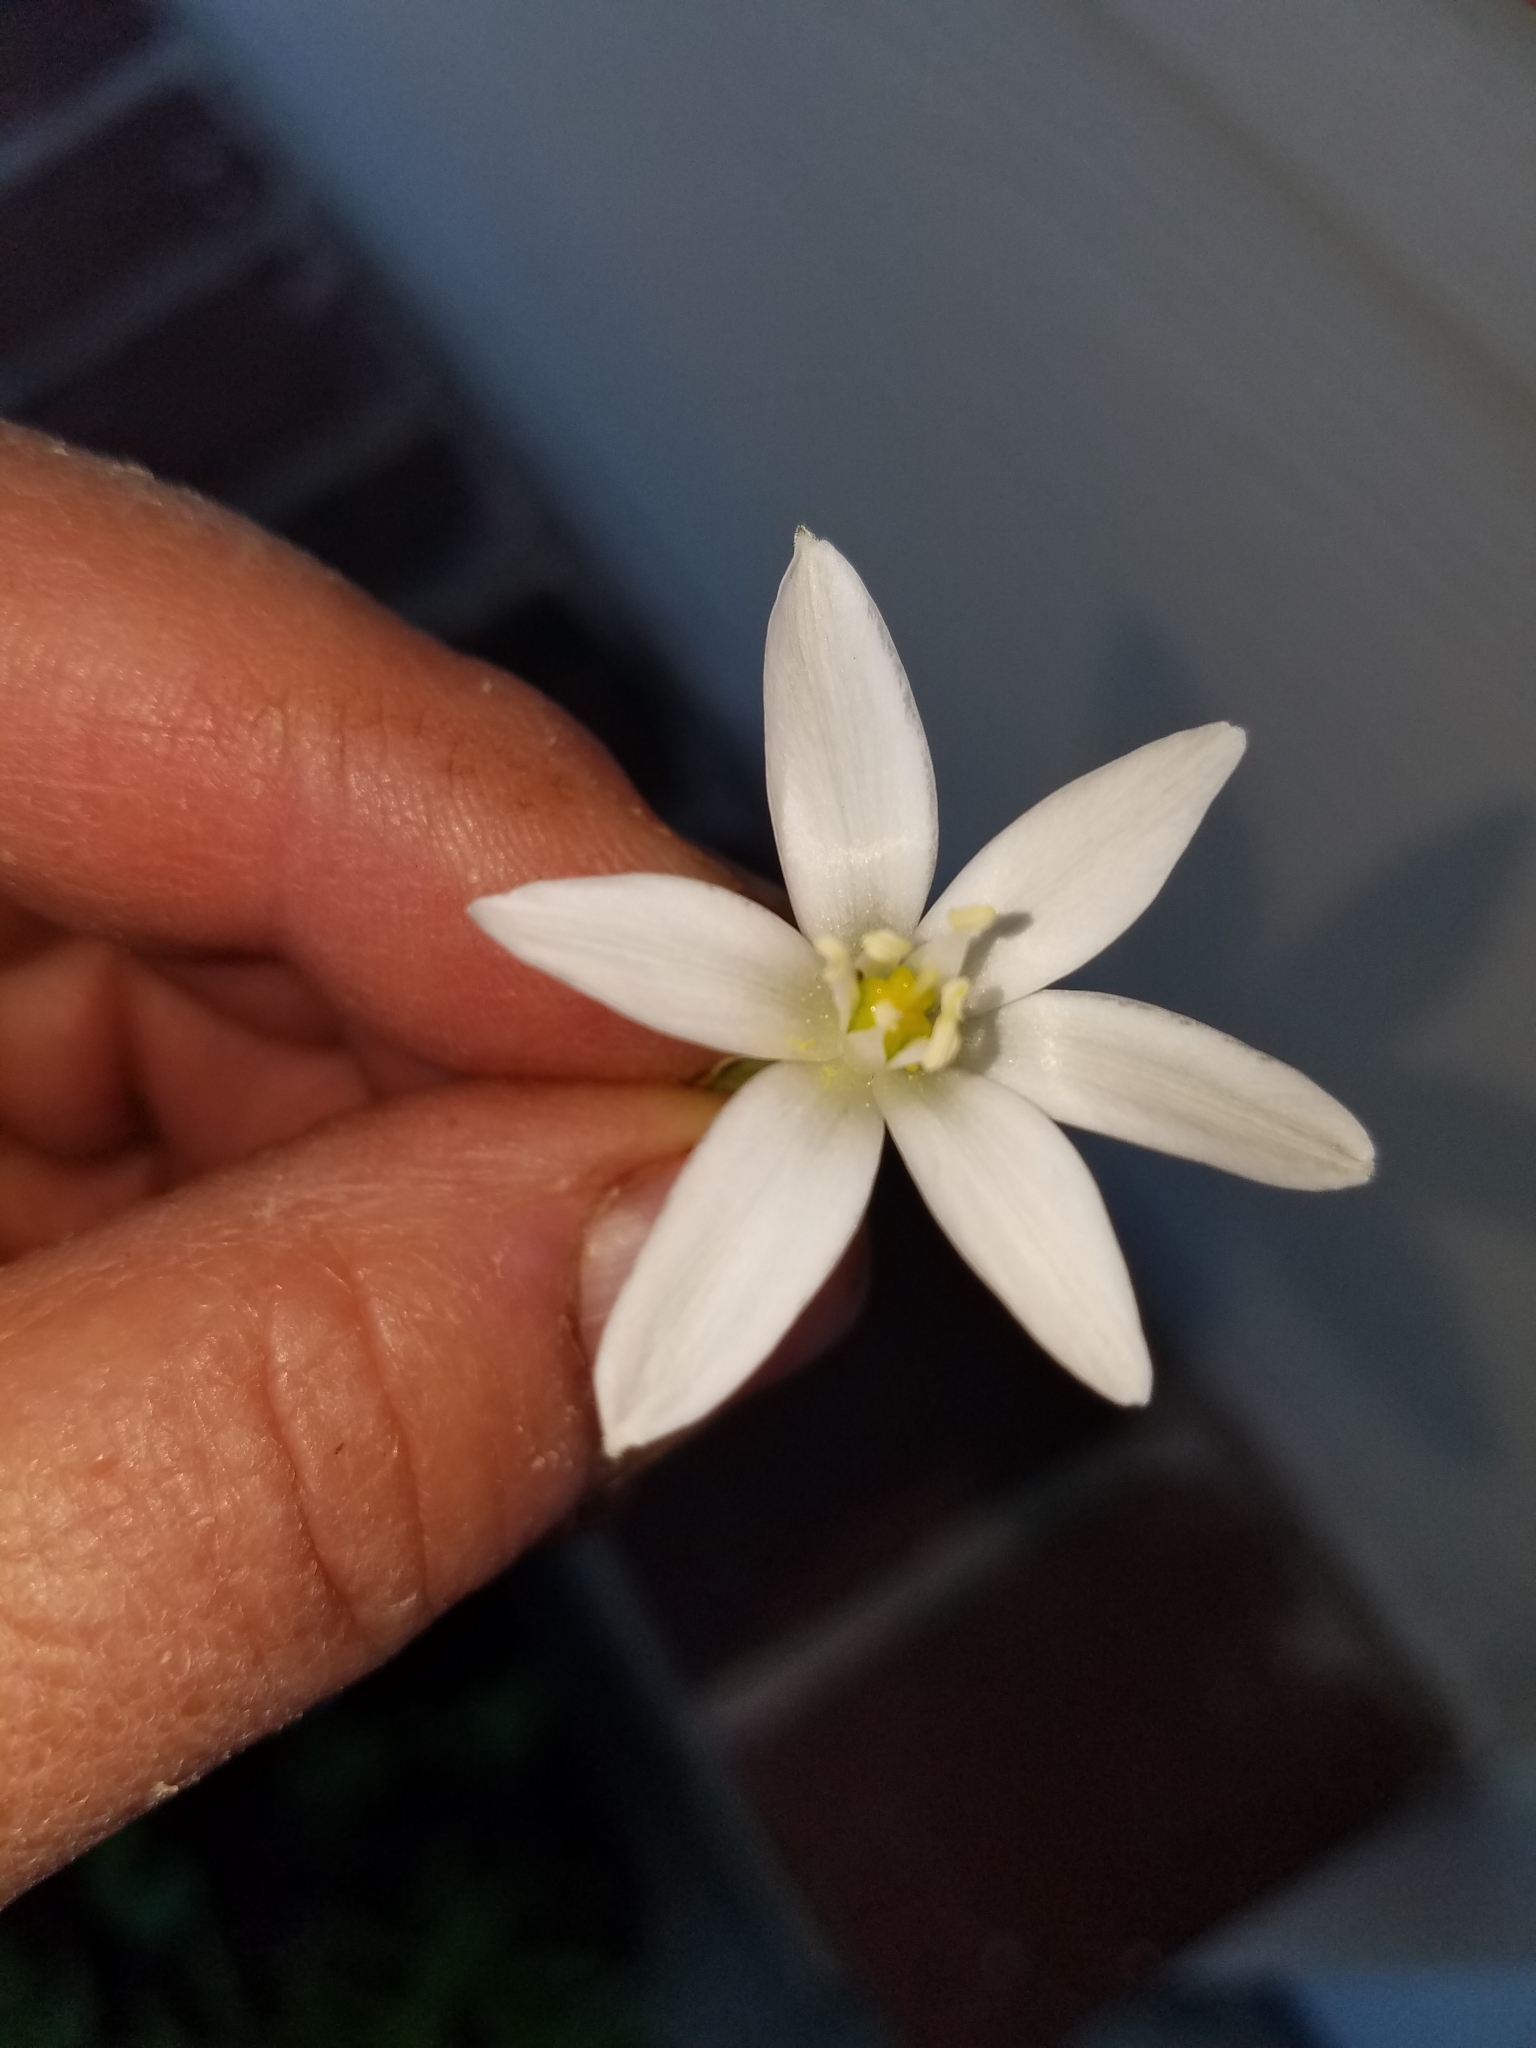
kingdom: Plantae
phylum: Tracheophyta
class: Liliopsida
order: Asparagales
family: Asparagaceae
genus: Ornithogalum
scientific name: Ornithogalum umbellatum
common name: Garden star-of-bethlehem
